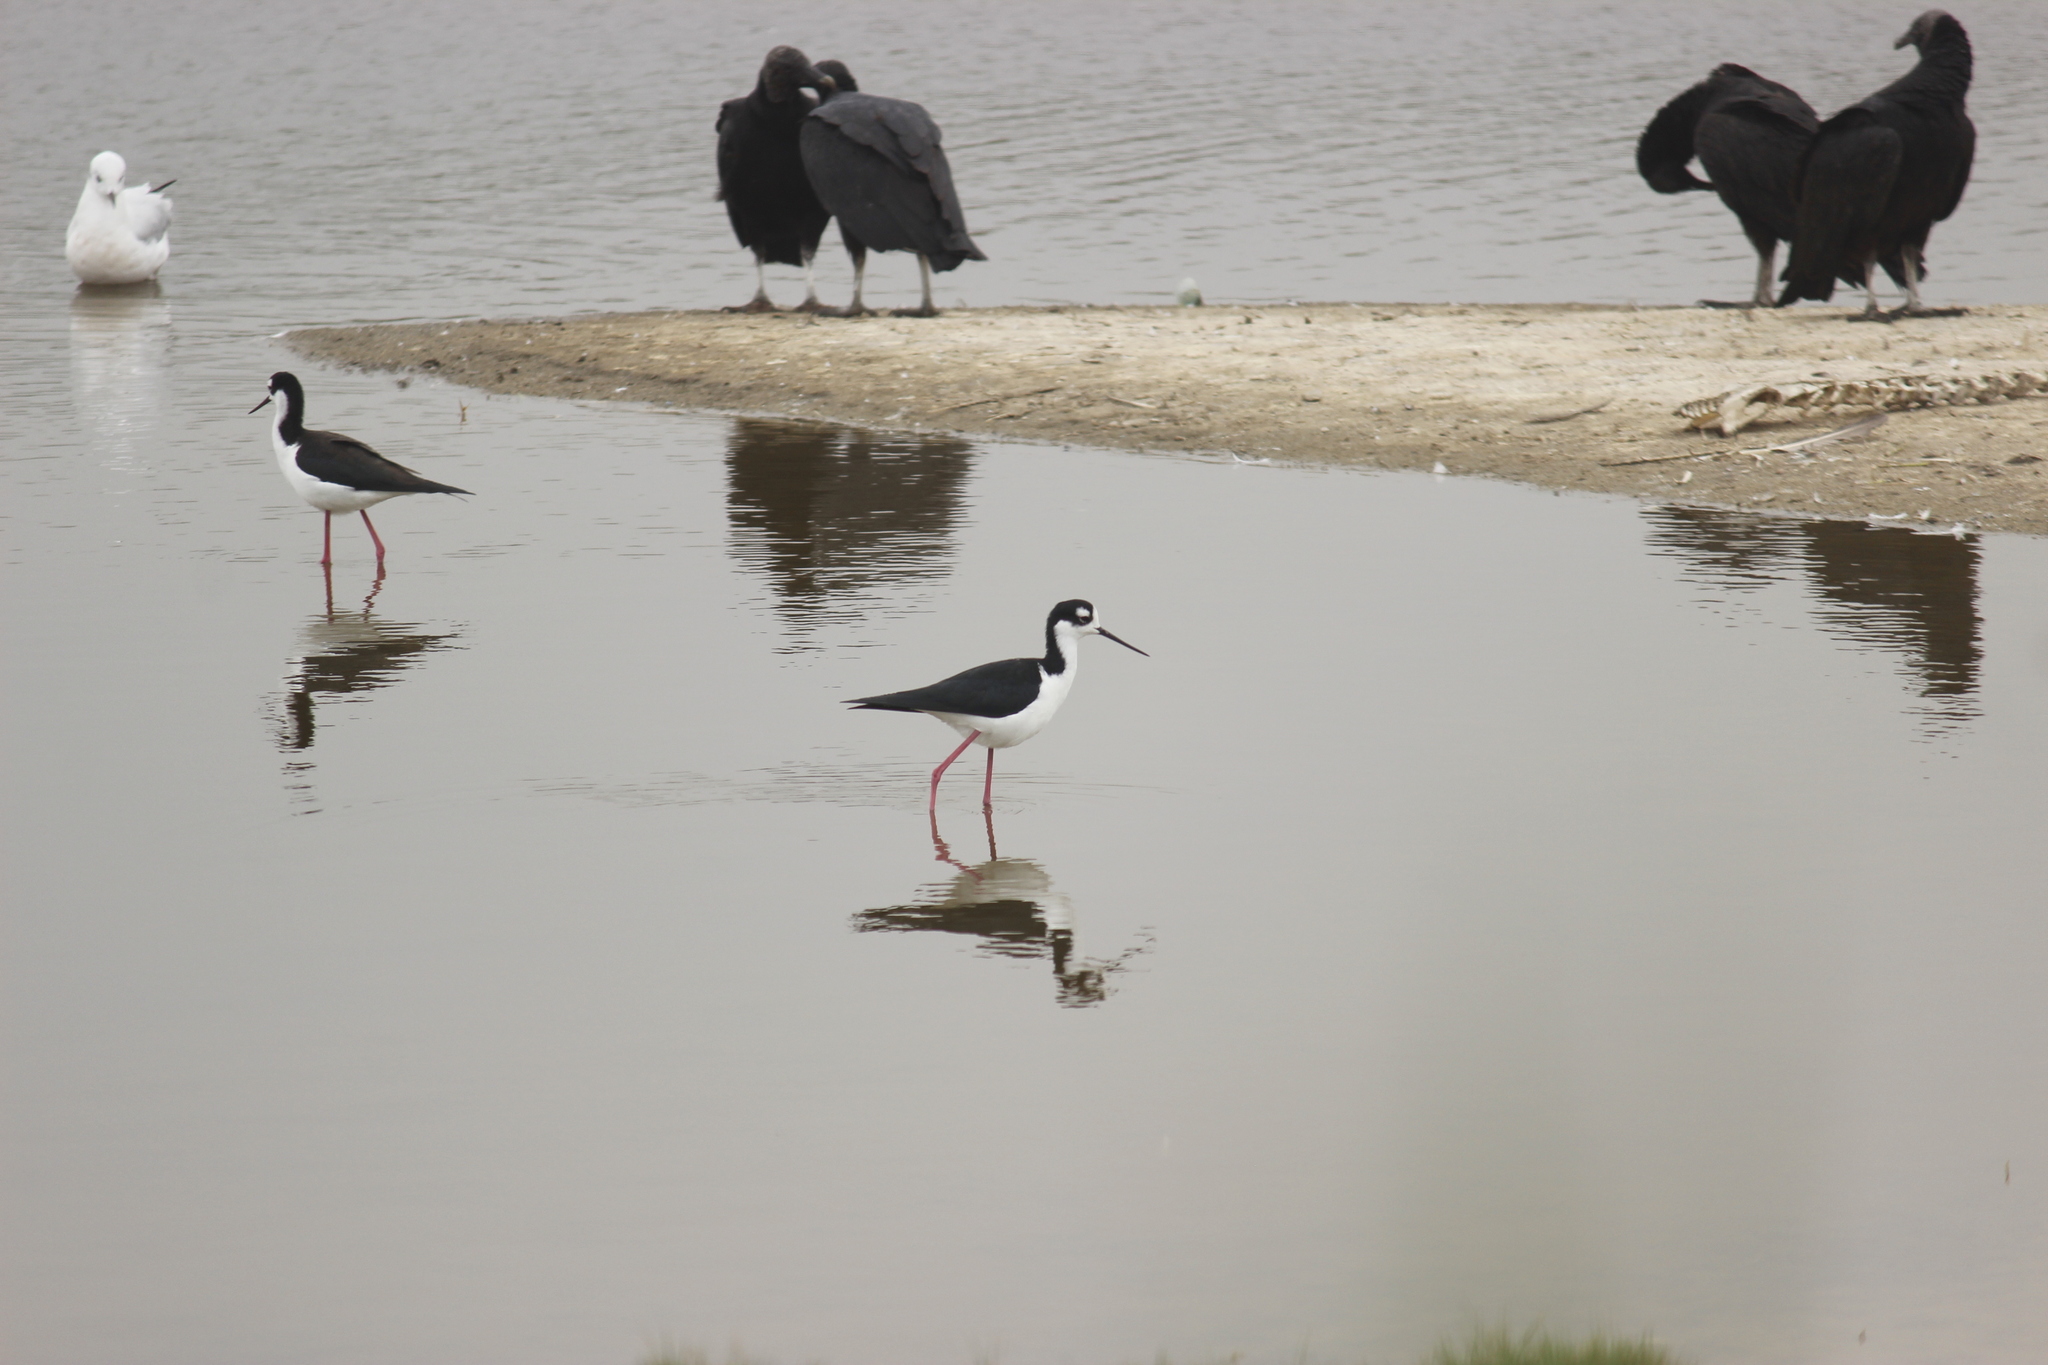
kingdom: Animalia
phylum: Chordata
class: Aves
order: Charadriiformes
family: Recurvirostridae
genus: Himantopus
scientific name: Himantopus mexicanus
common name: Black-necked stilt
